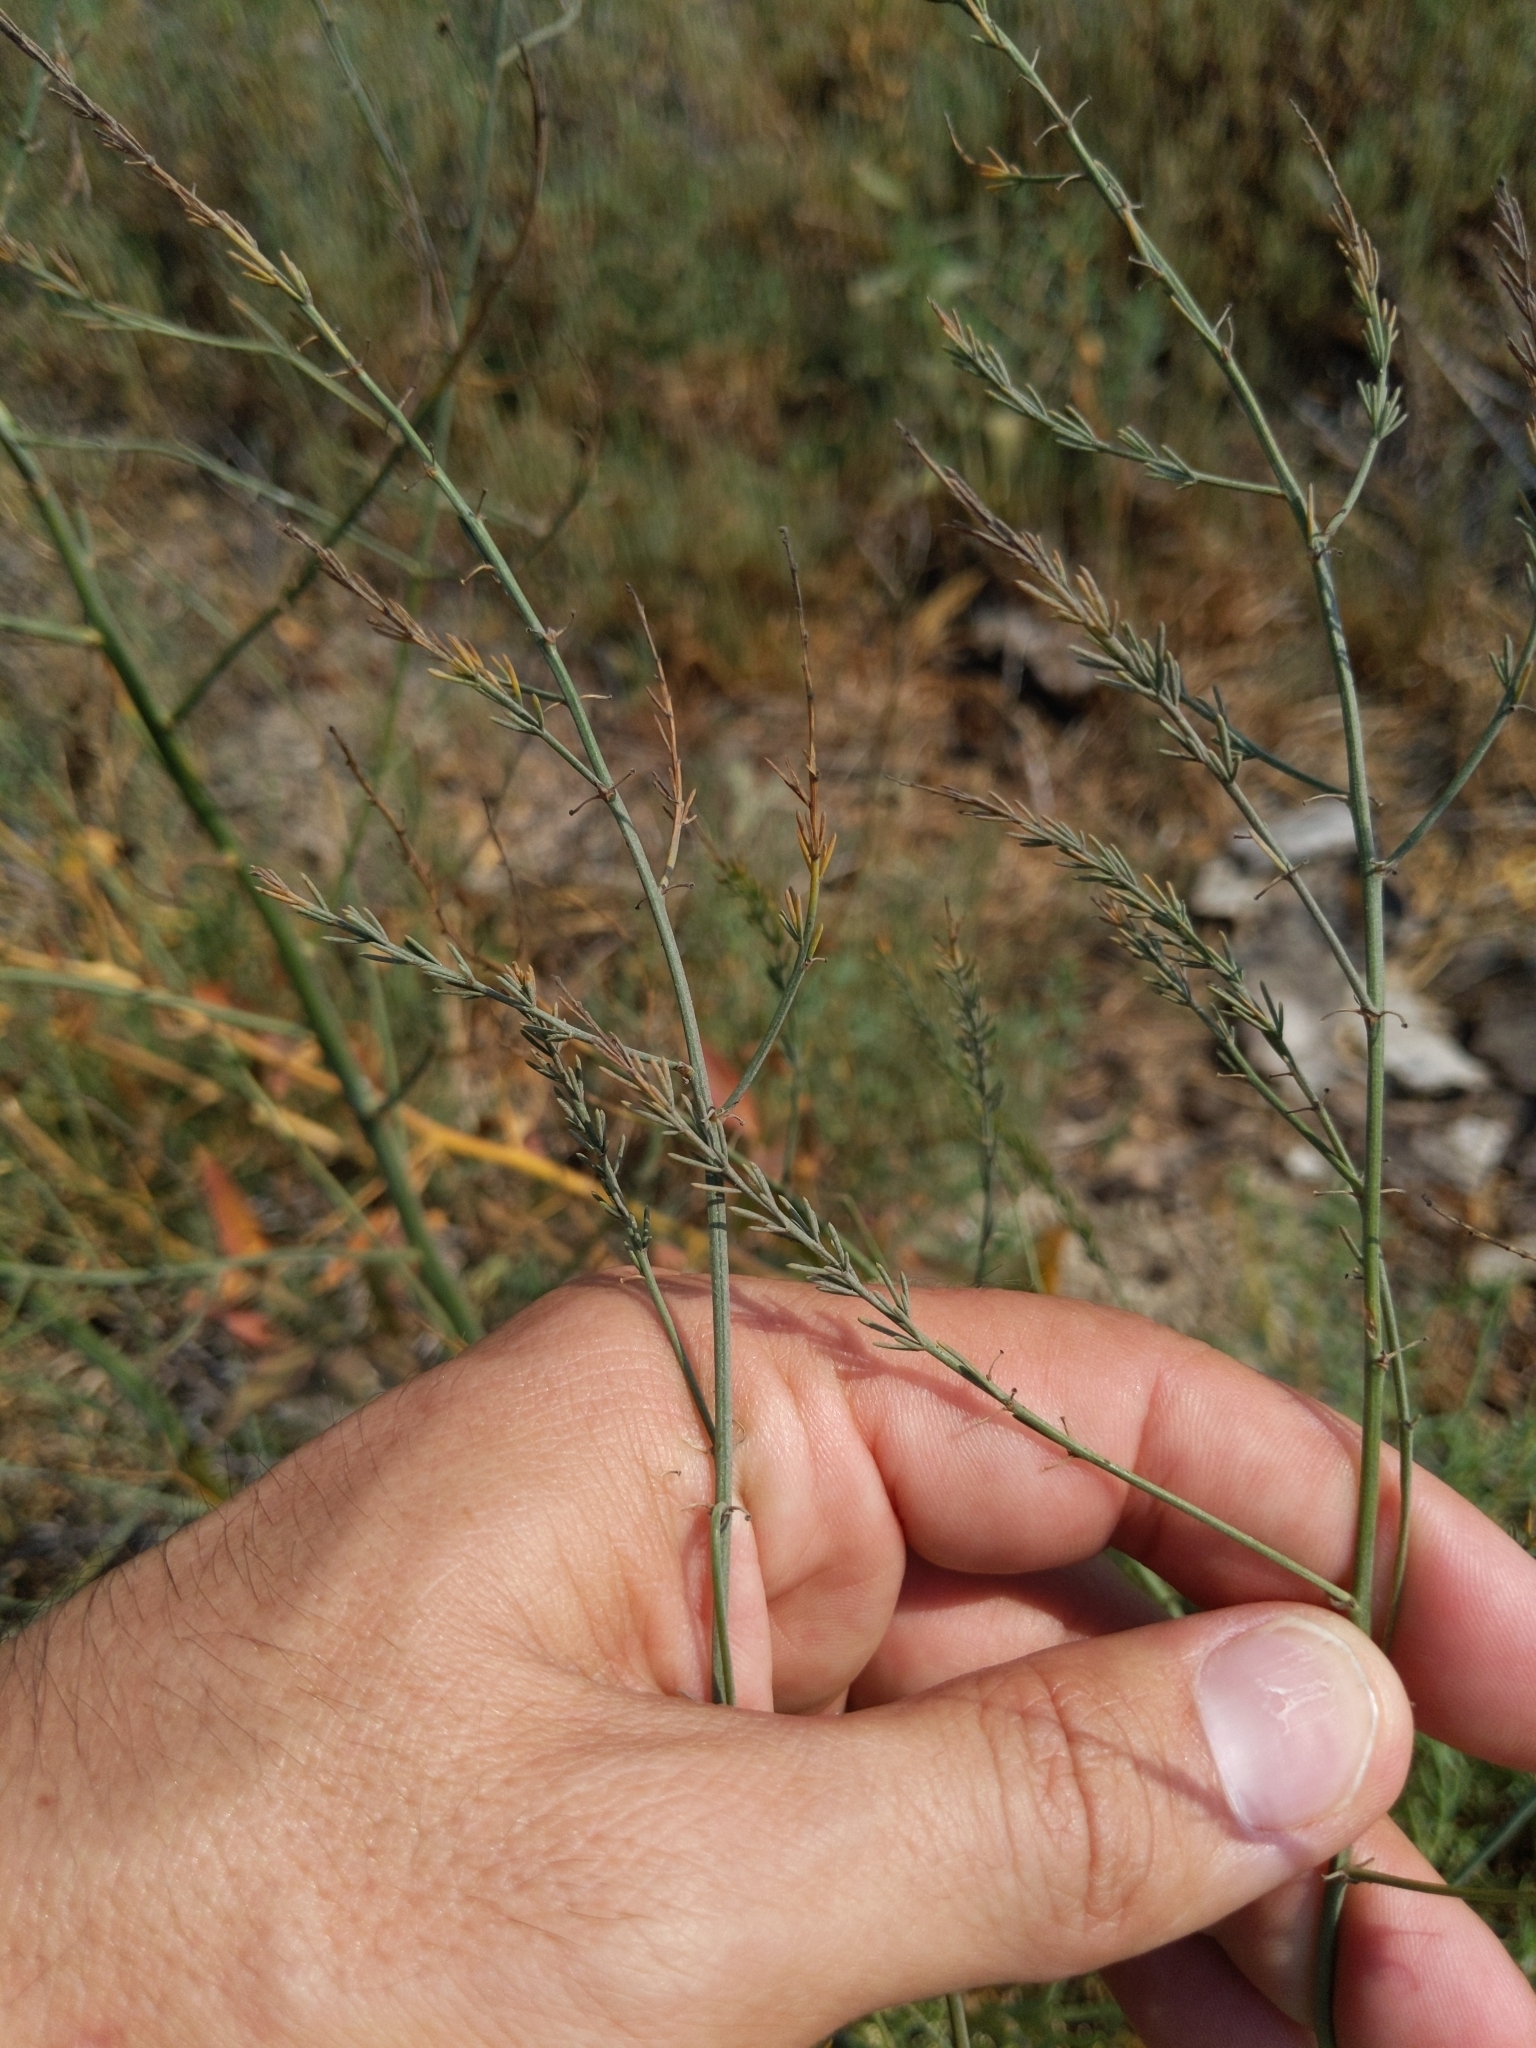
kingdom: Plantae
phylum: Tracheophyta
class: Liliopsida
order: Asparagales
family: Asparagaceae
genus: Asparagus
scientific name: Asparagus officinalis
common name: Garden asparagus
